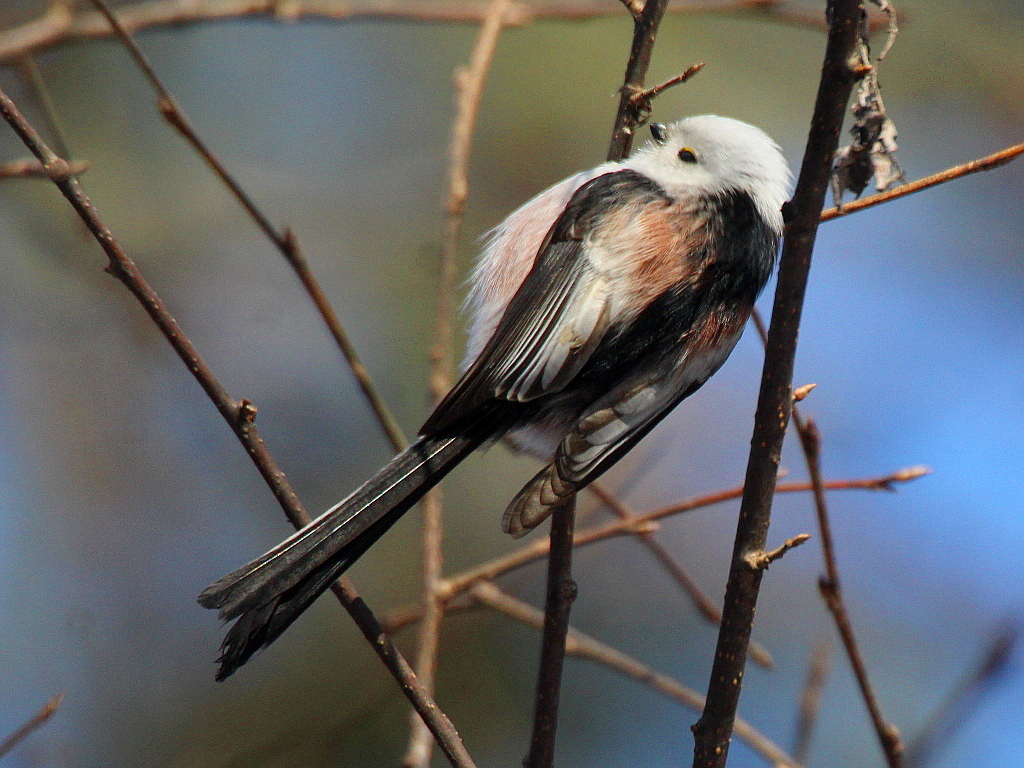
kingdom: Animalia
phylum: Chordata
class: Aves
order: Passeriformes
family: Aegithalidae
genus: Aegithalos
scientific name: Aegithalos caudatus
